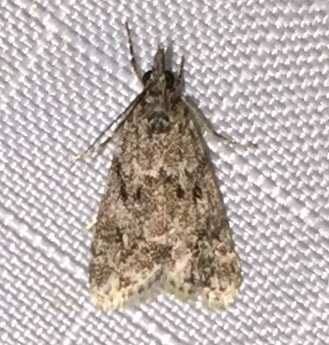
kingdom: Animalia
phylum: Arthropoda
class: Insecta
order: Lepidoptera
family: Crambidae
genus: Eudonia
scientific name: Eudonia heterosalis
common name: Mcdunnough's eudonia
